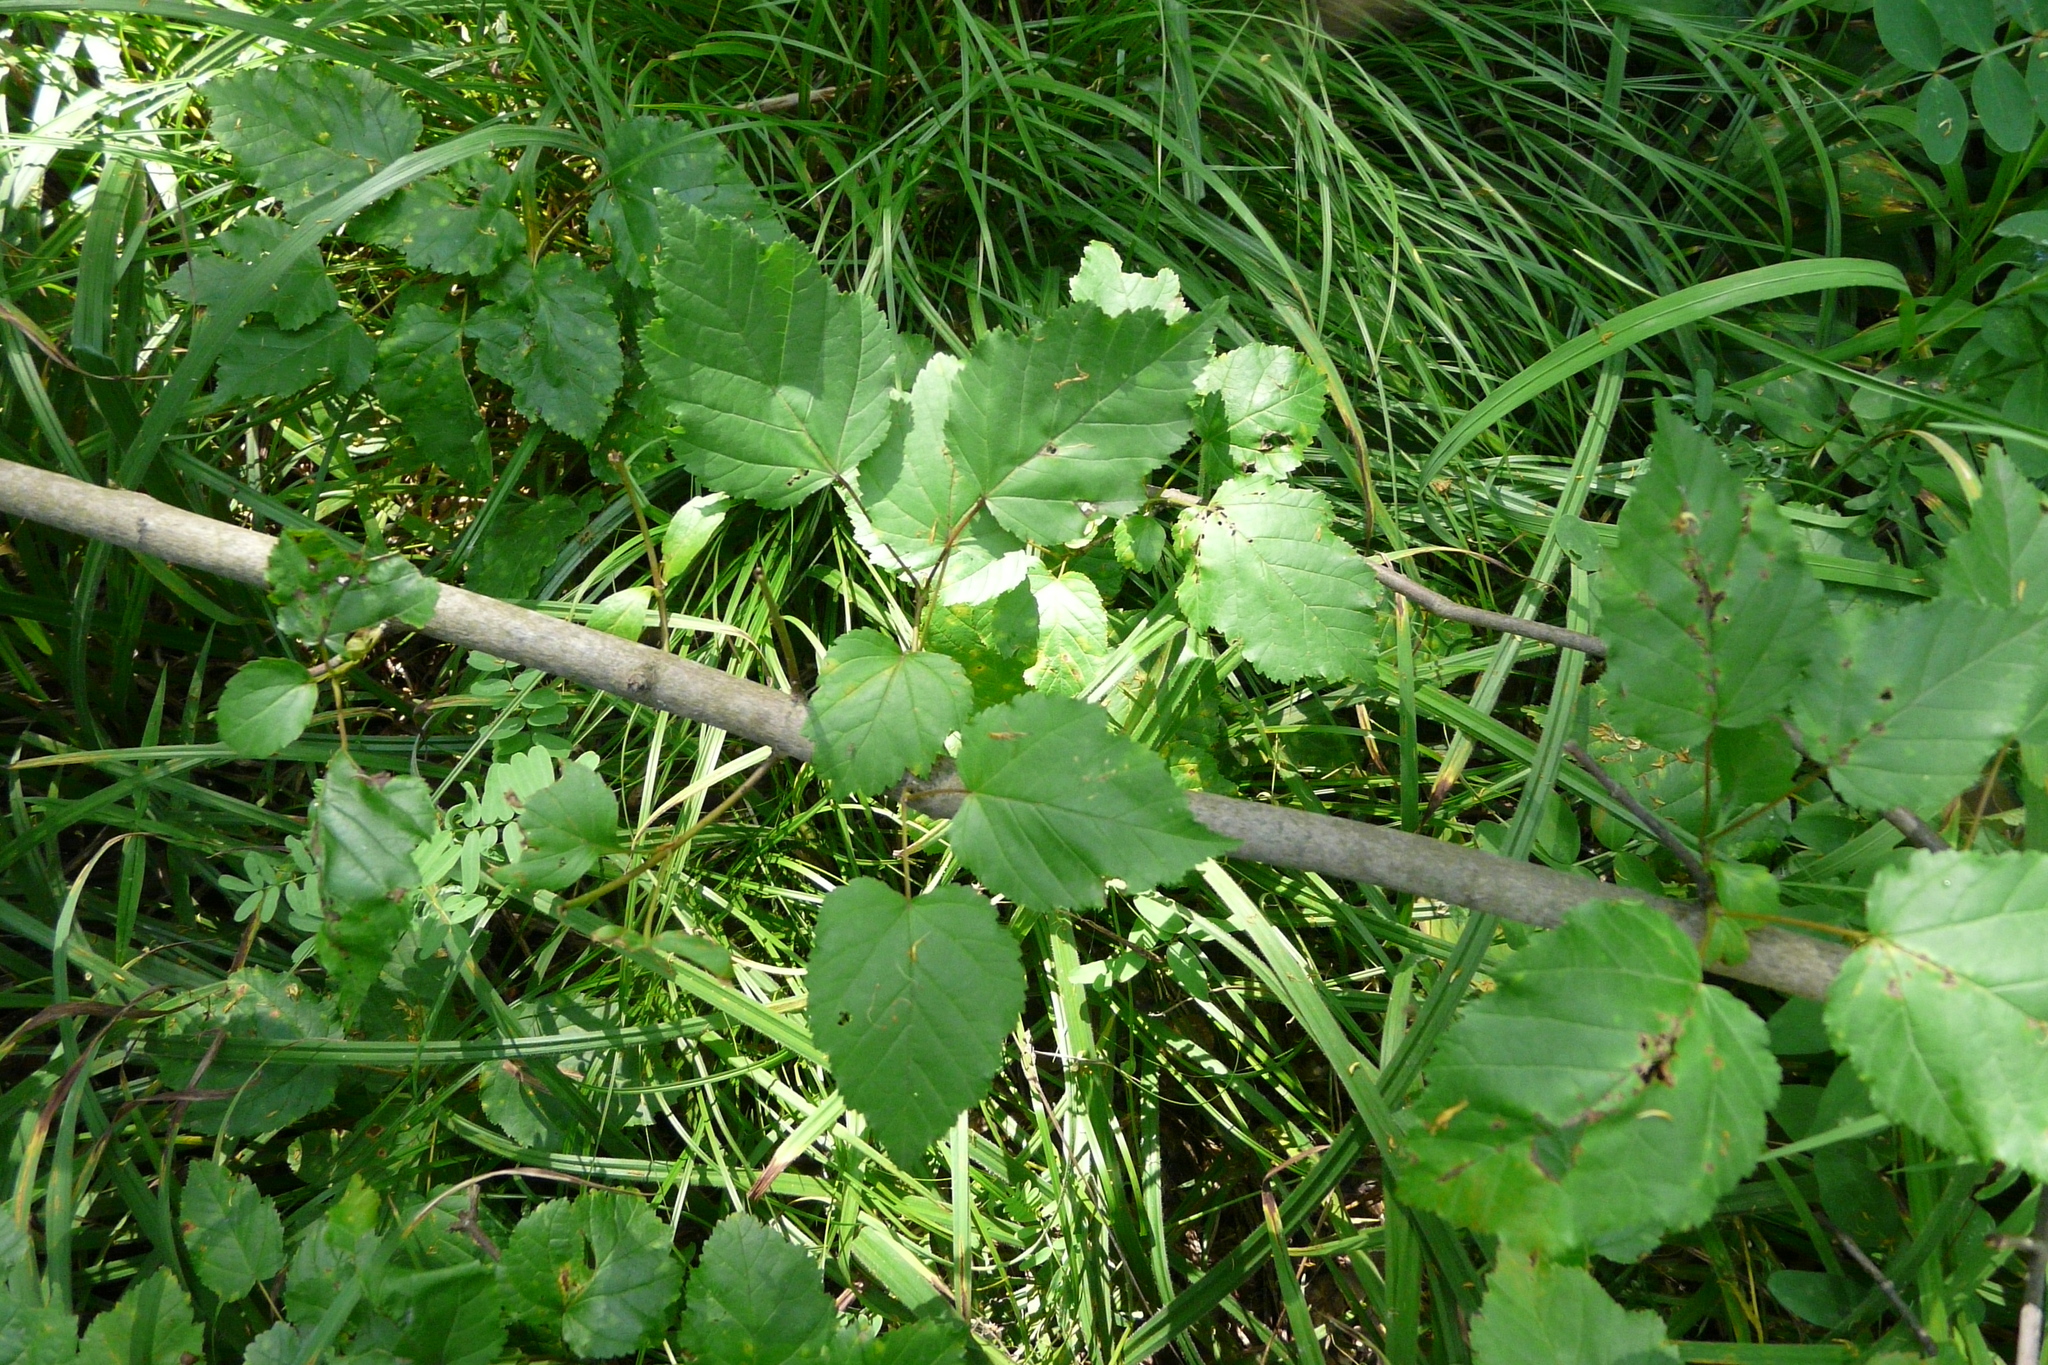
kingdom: Plantae
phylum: Tracheophyta
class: Magnoliopsida
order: Sapindales
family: Sapindaceae
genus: Acer
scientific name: Acer tataricum
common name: Tartar maple
